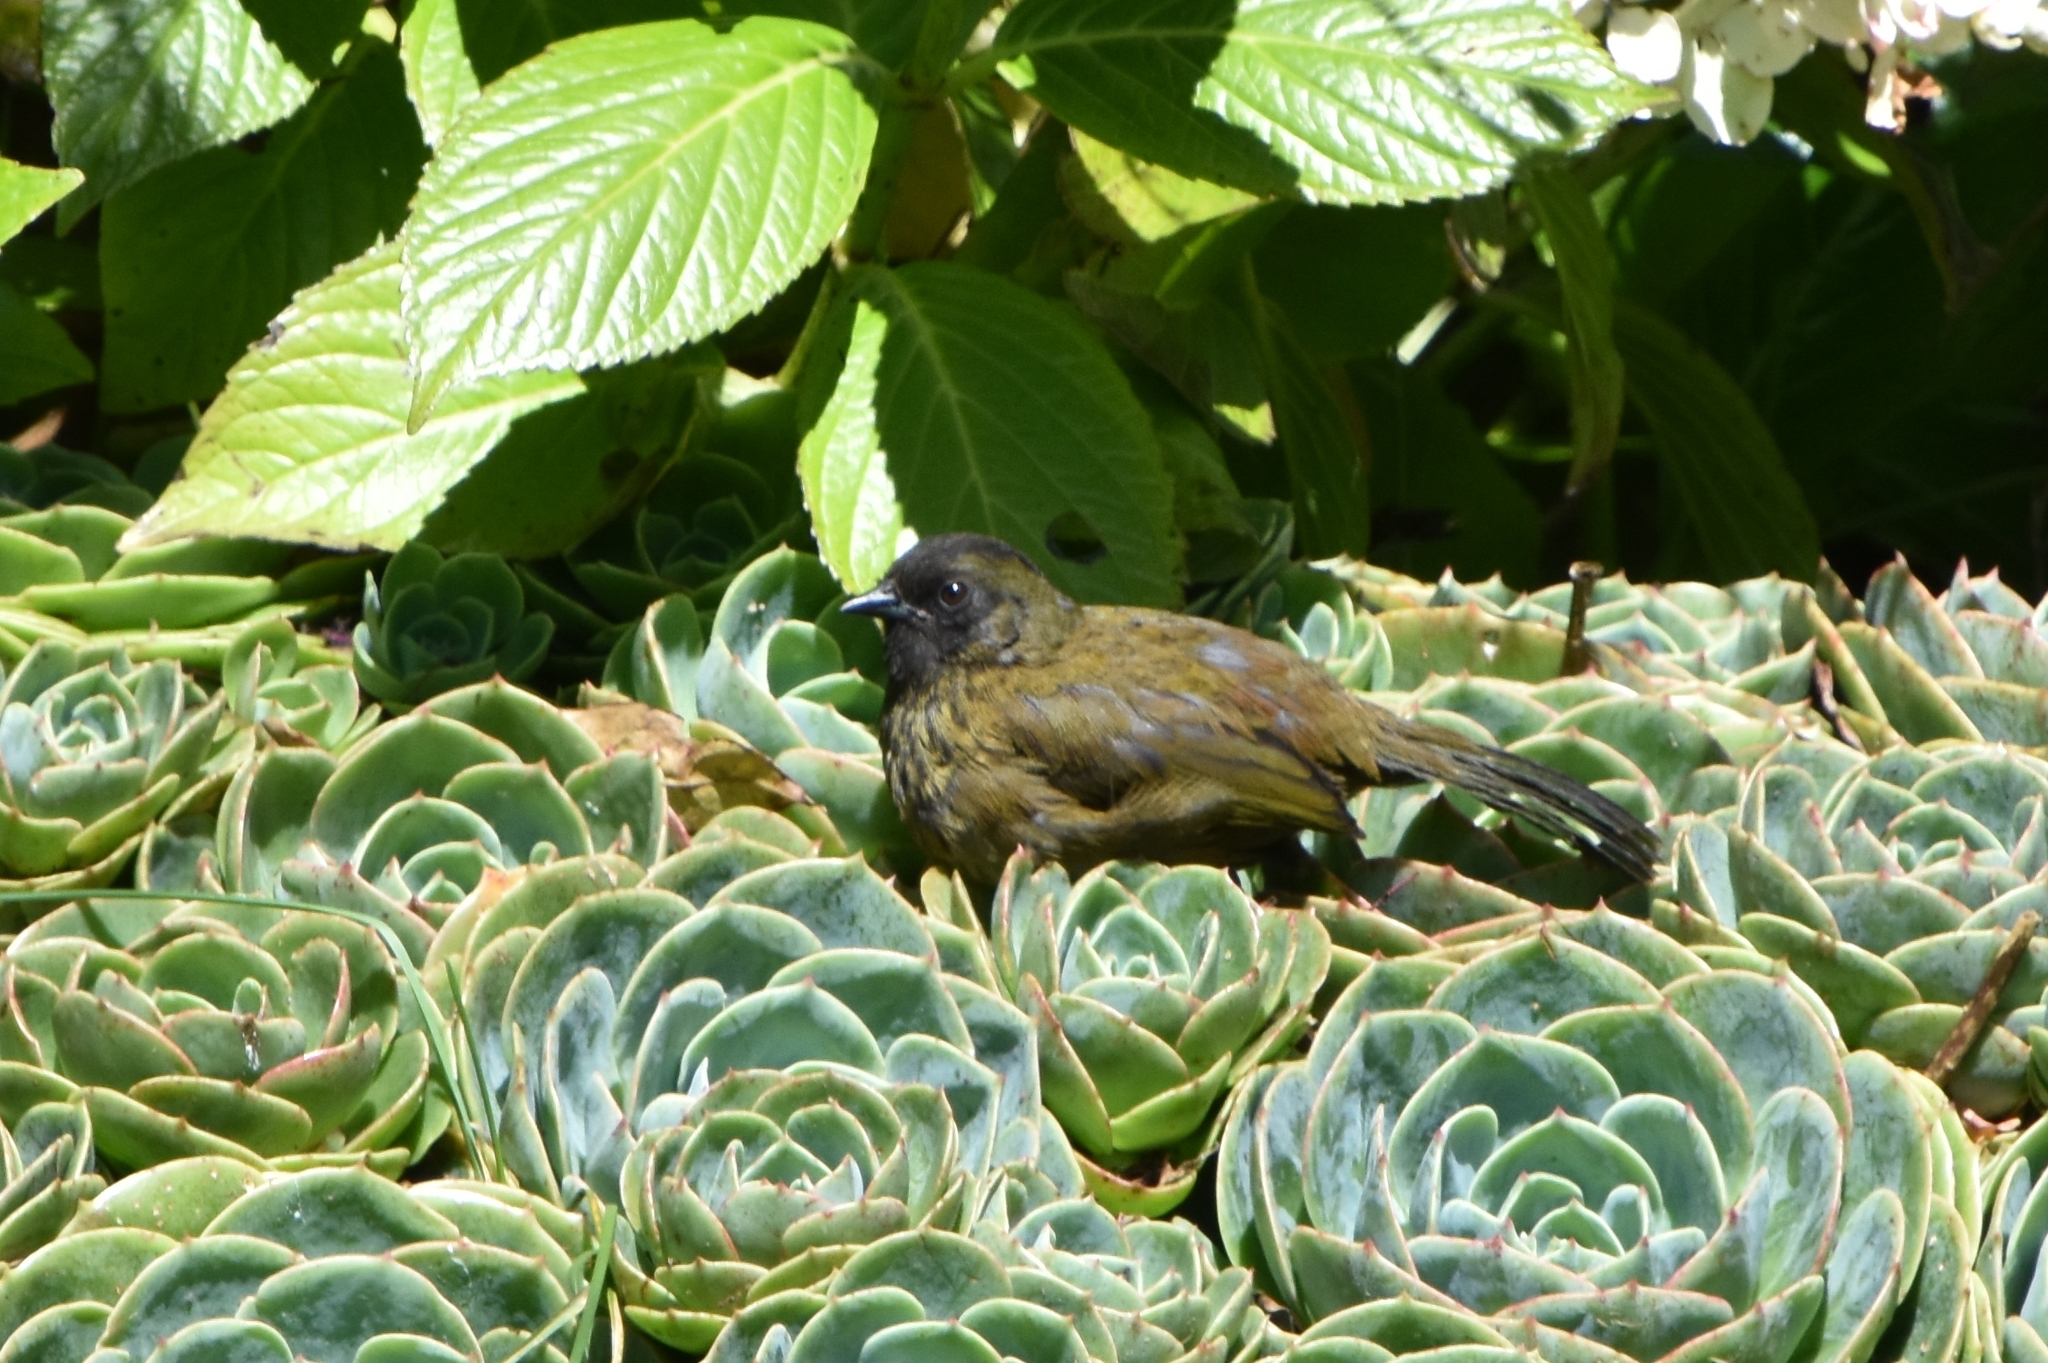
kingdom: Animalia
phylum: Chordata
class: Aves
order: Passeriformes
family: Passerellidae
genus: Pezopetes
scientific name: Pezopetes capitalis
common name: Large-footed finch
